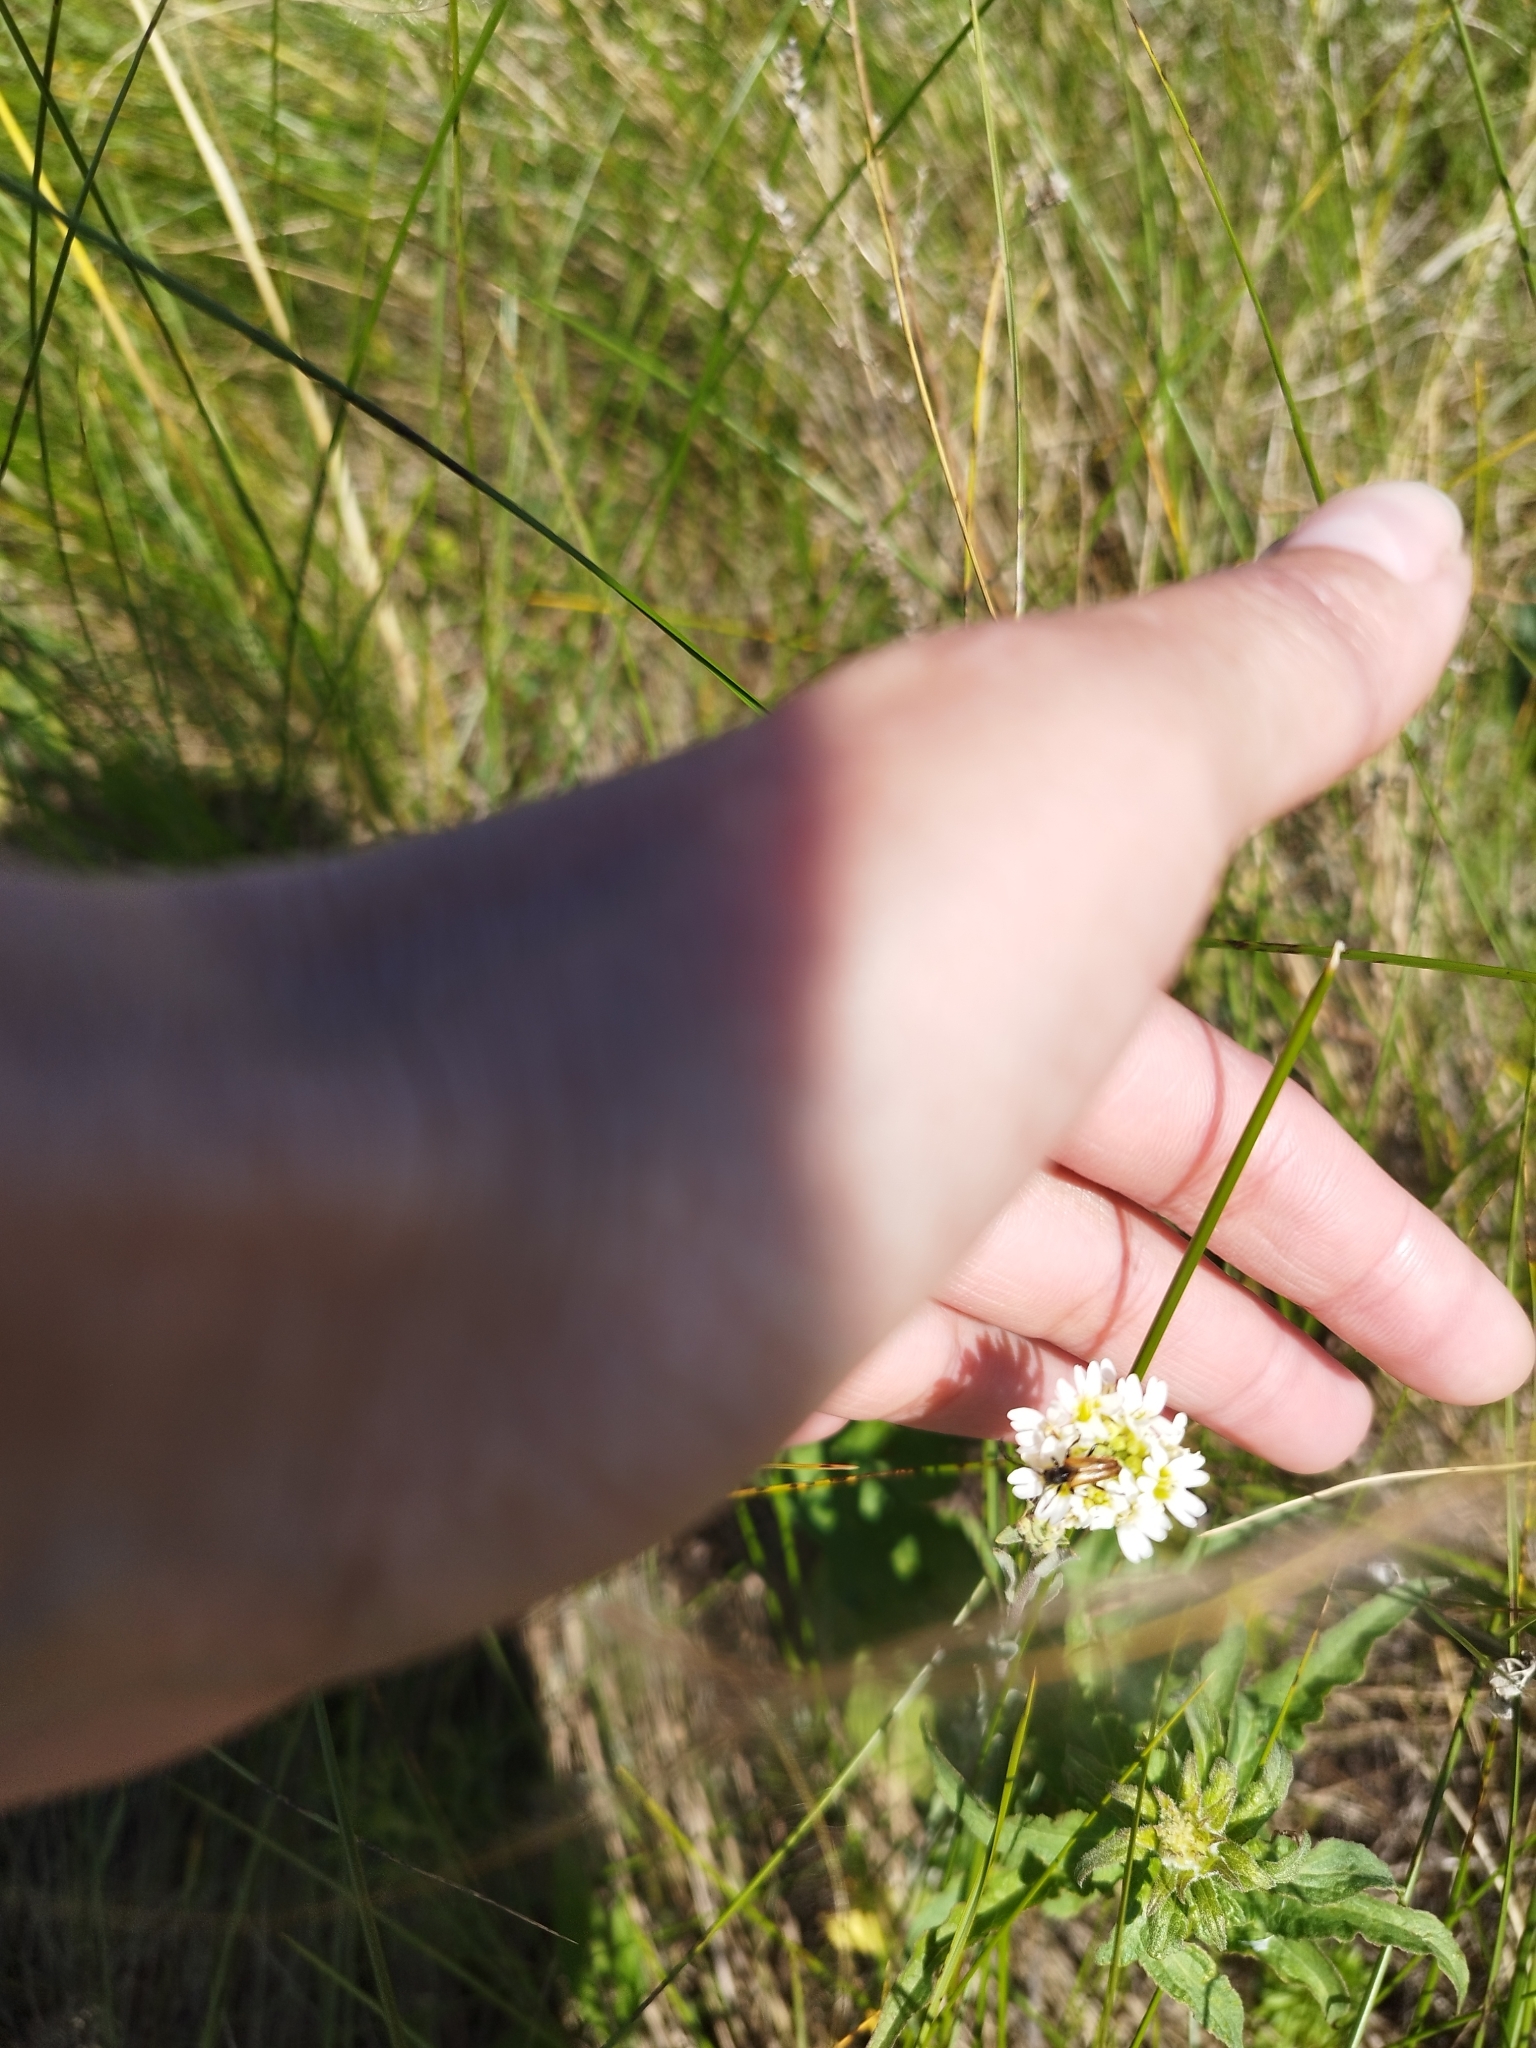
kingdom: Plantae
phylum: Tracheophyta
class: Magnoliopsida
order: Brassicales
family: Brassicaceae
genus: Berteroa
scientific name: Berteroa incana
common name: Hoary alison
